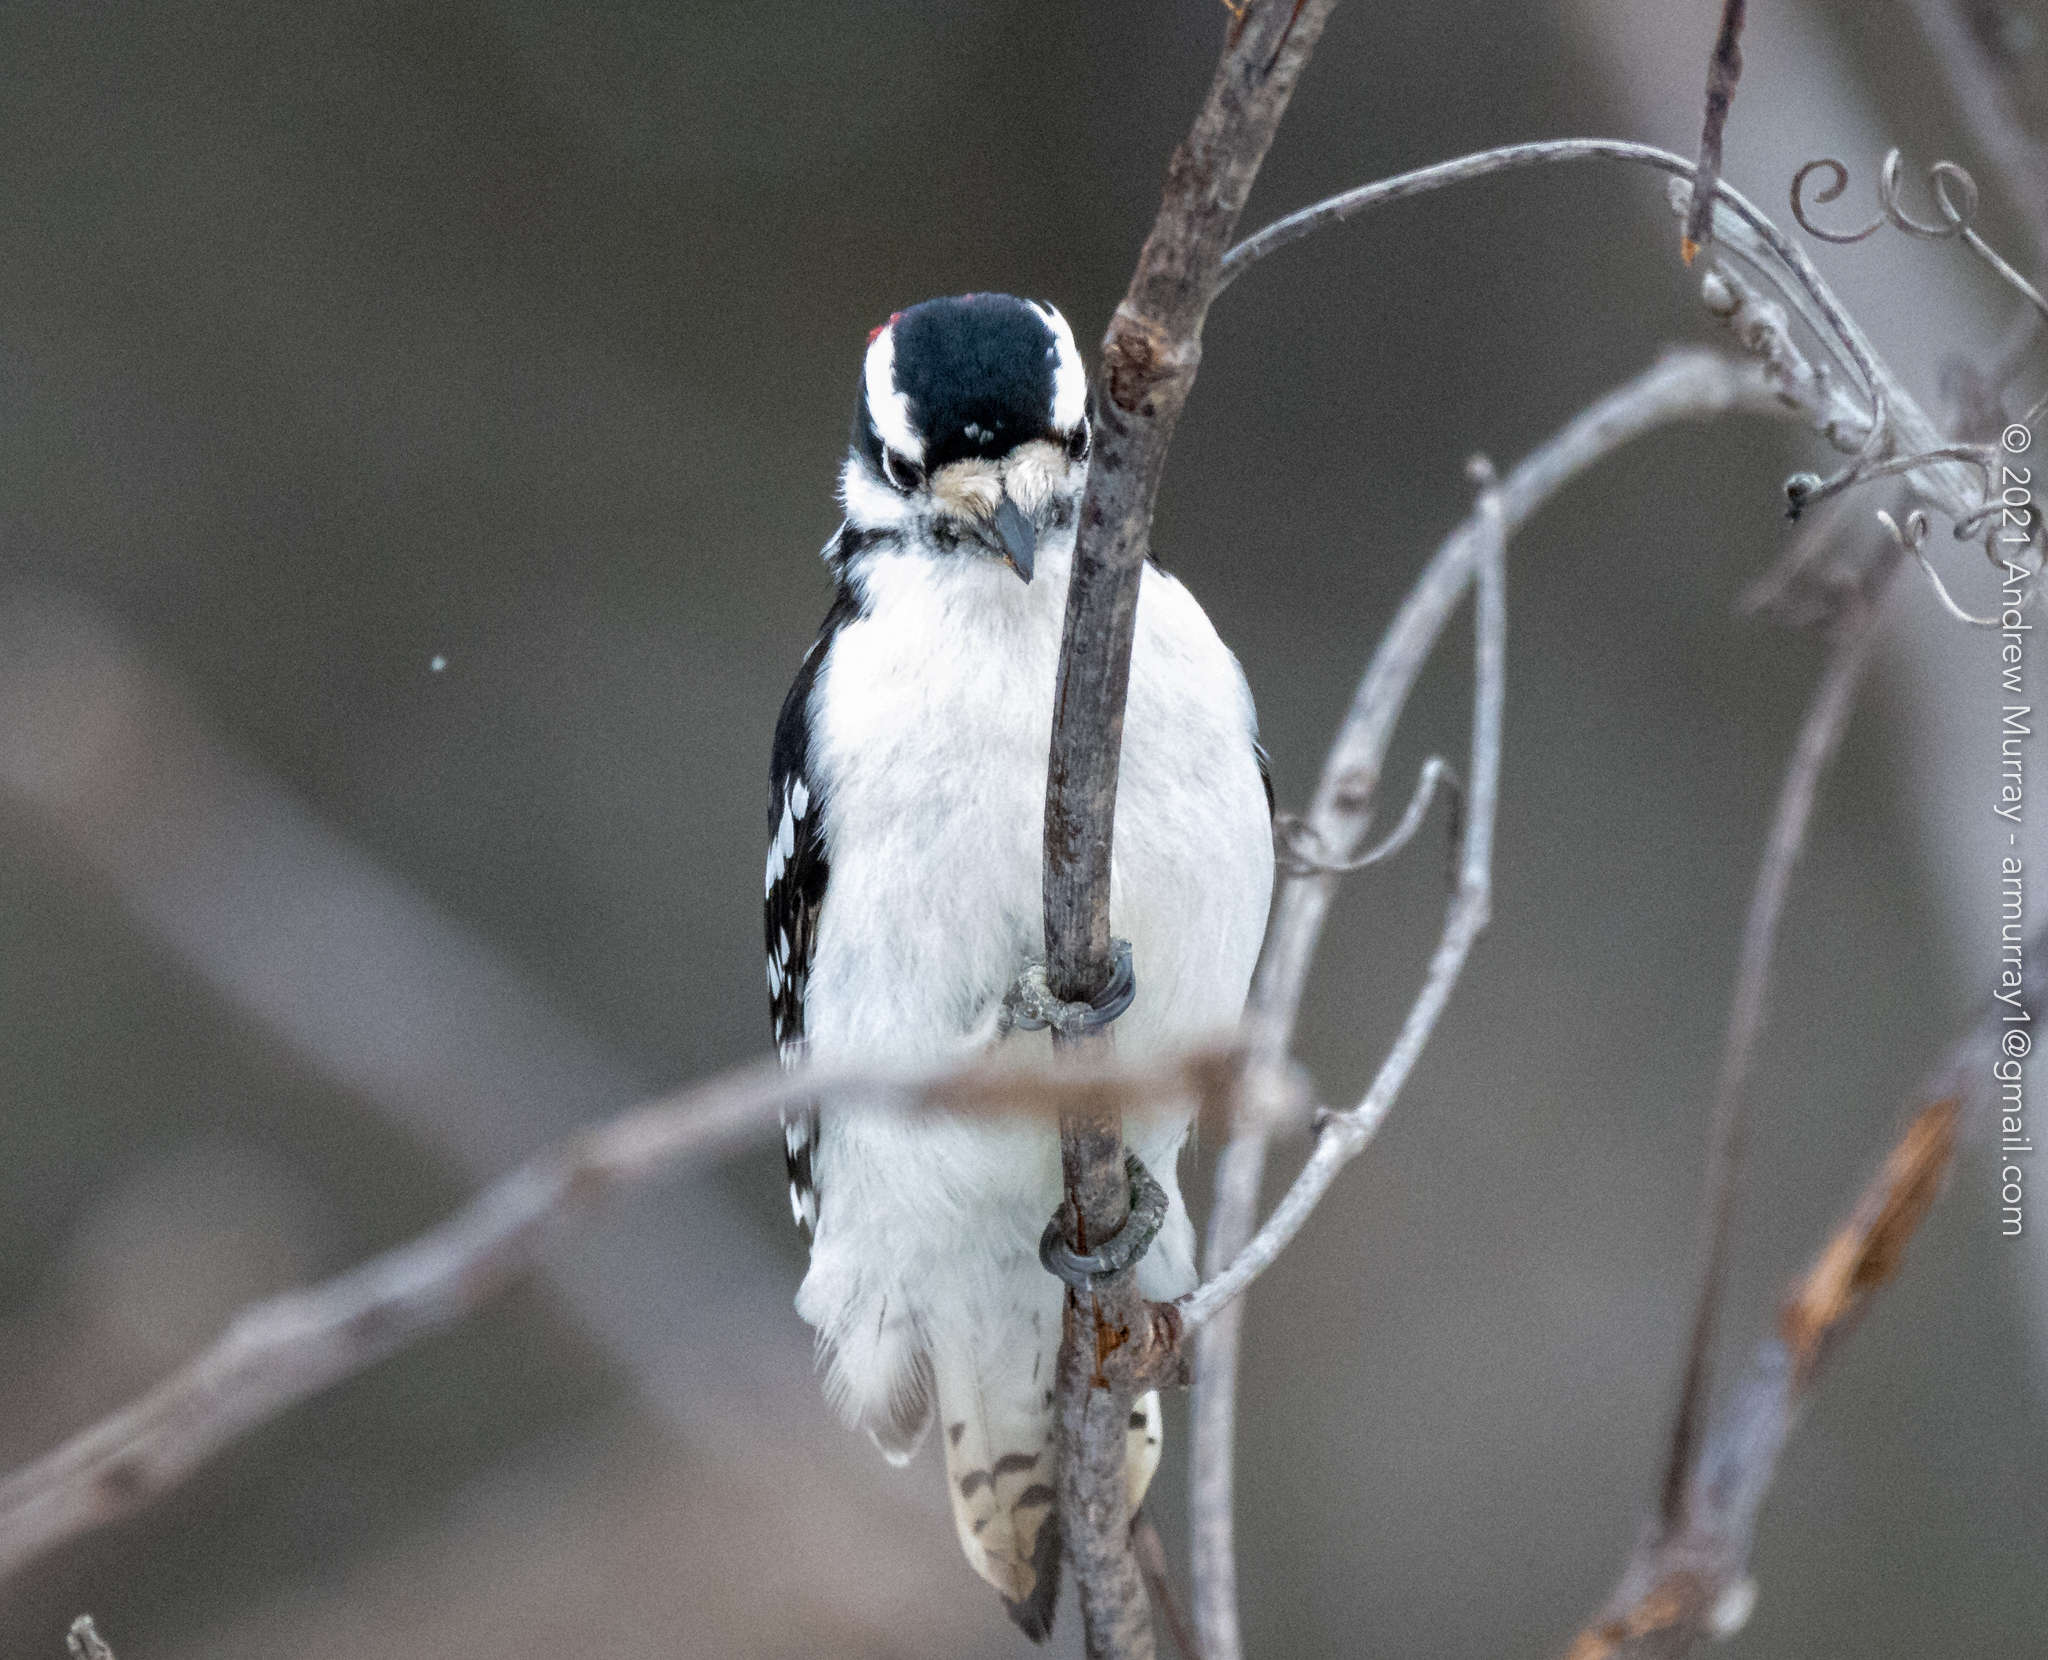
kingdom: Animalia
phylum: Chordata
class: Aves
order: Piciformes
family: Picidae
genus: Dryobates
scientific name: Dryobates pubescens
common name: Downy woodpecker
